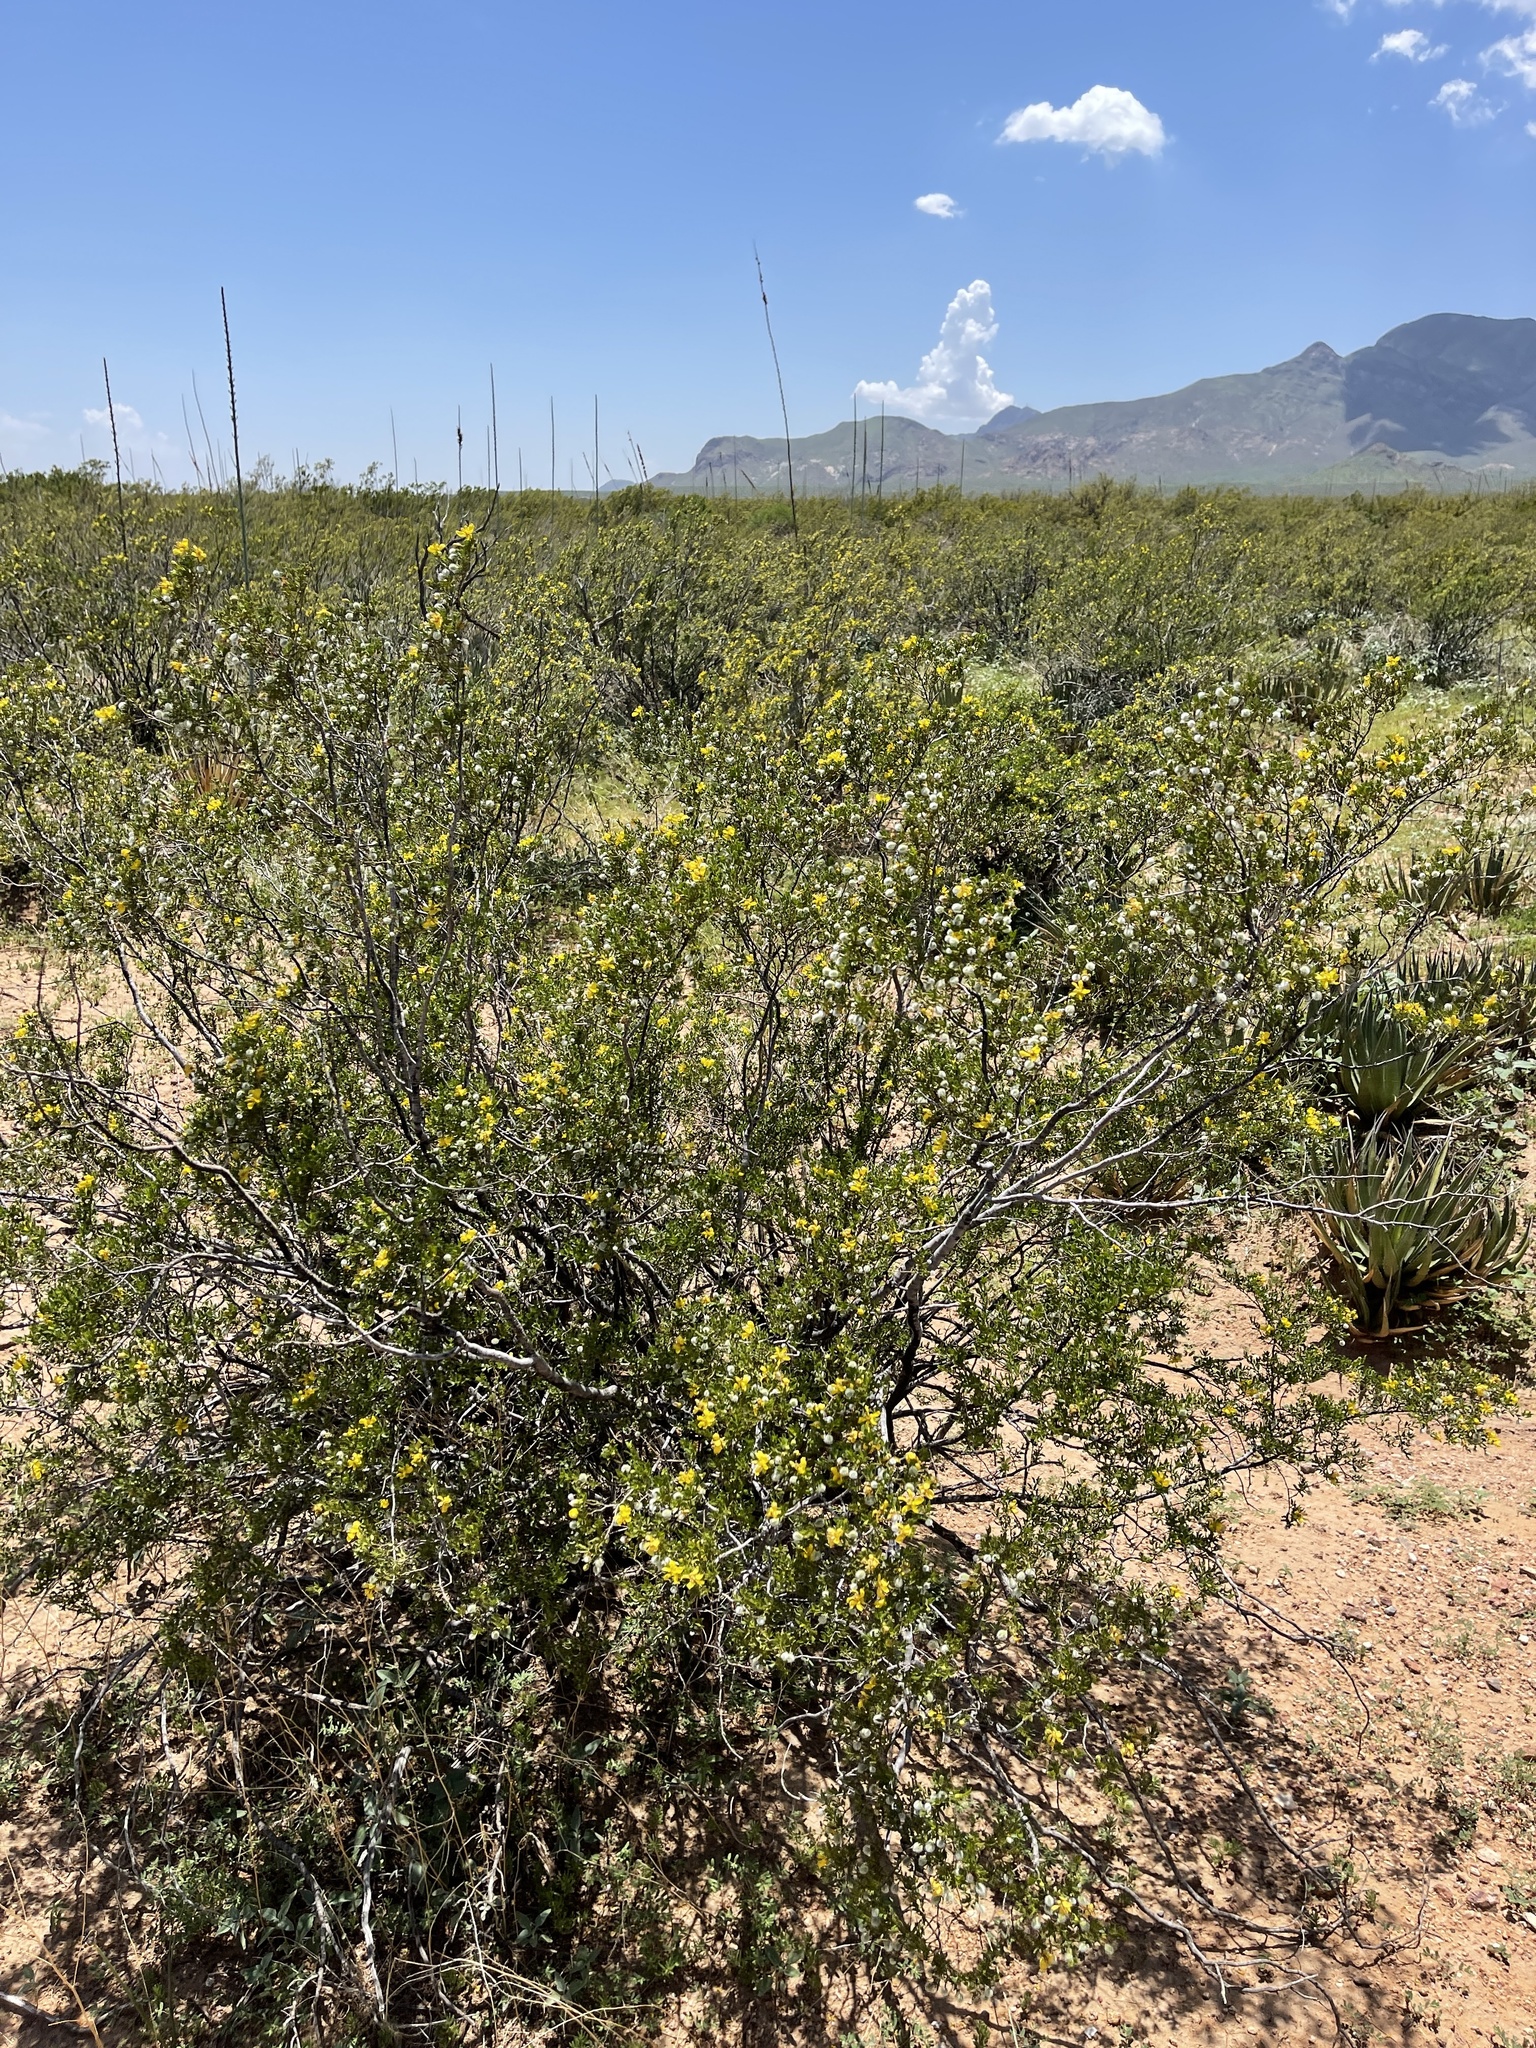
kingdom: Plantae
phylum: Tracheophyta
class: Magnoliopsida
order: Zygophyllales
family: Zygophyllaceae
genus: Larrea
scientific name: Larrea tridentata
